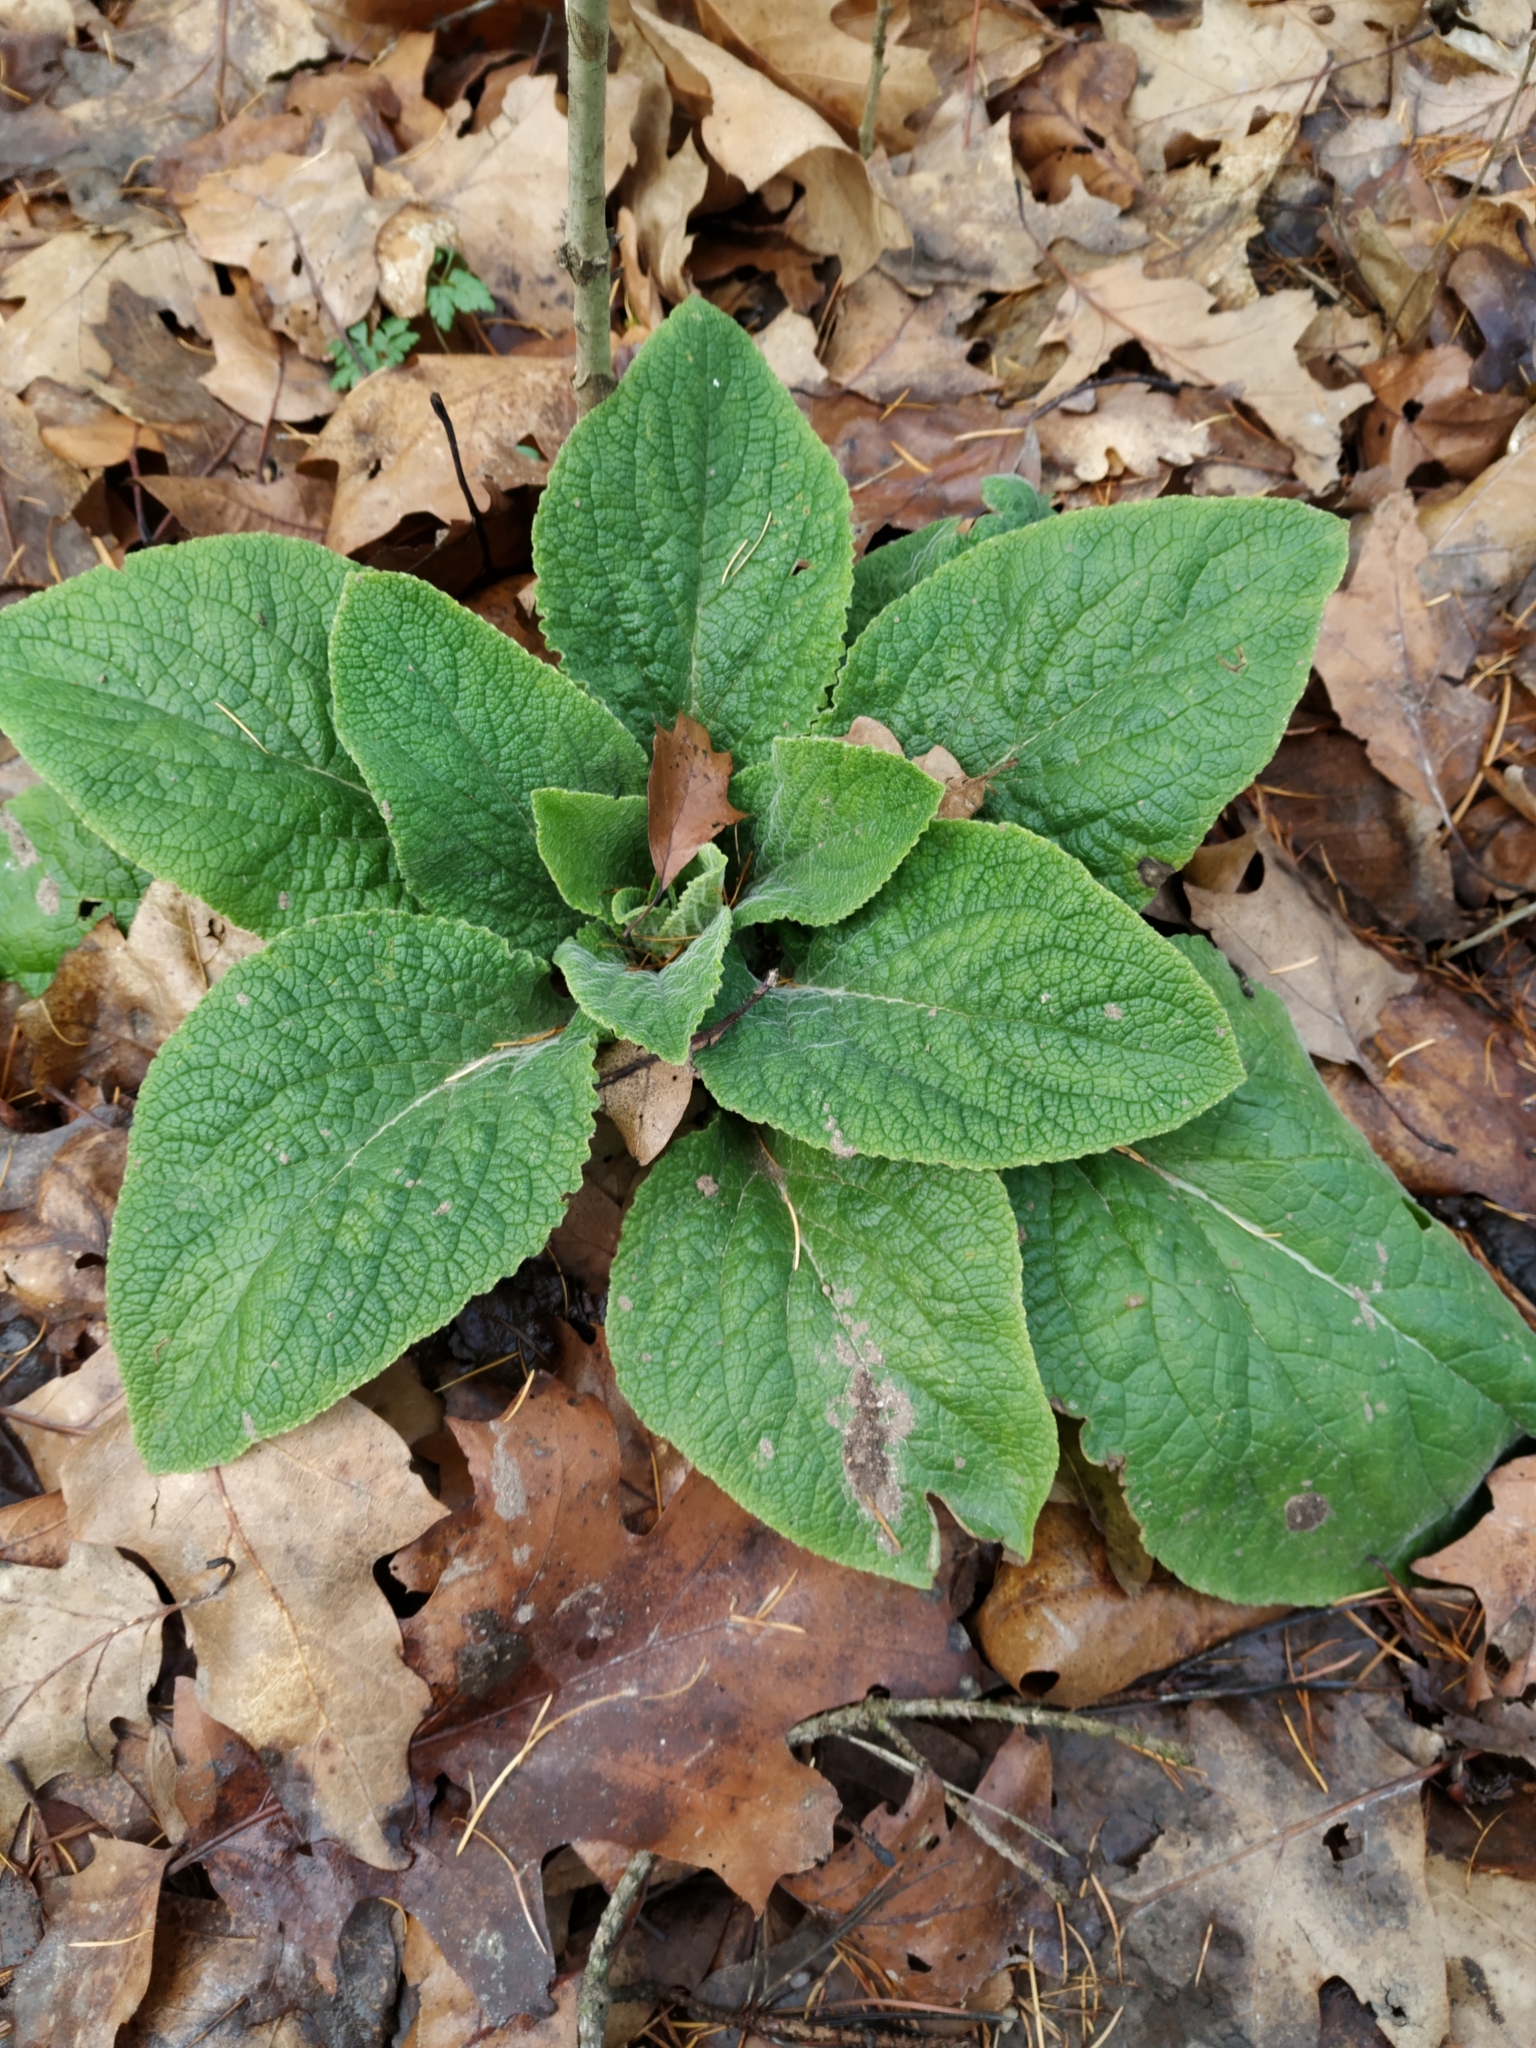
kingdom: Plantae
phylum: Tracheophyta
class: Magnoliopsida
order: Lamiales
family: Plantaginaceae
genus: Digitalis
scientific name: Digitalis purpurea
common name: Foxglove
